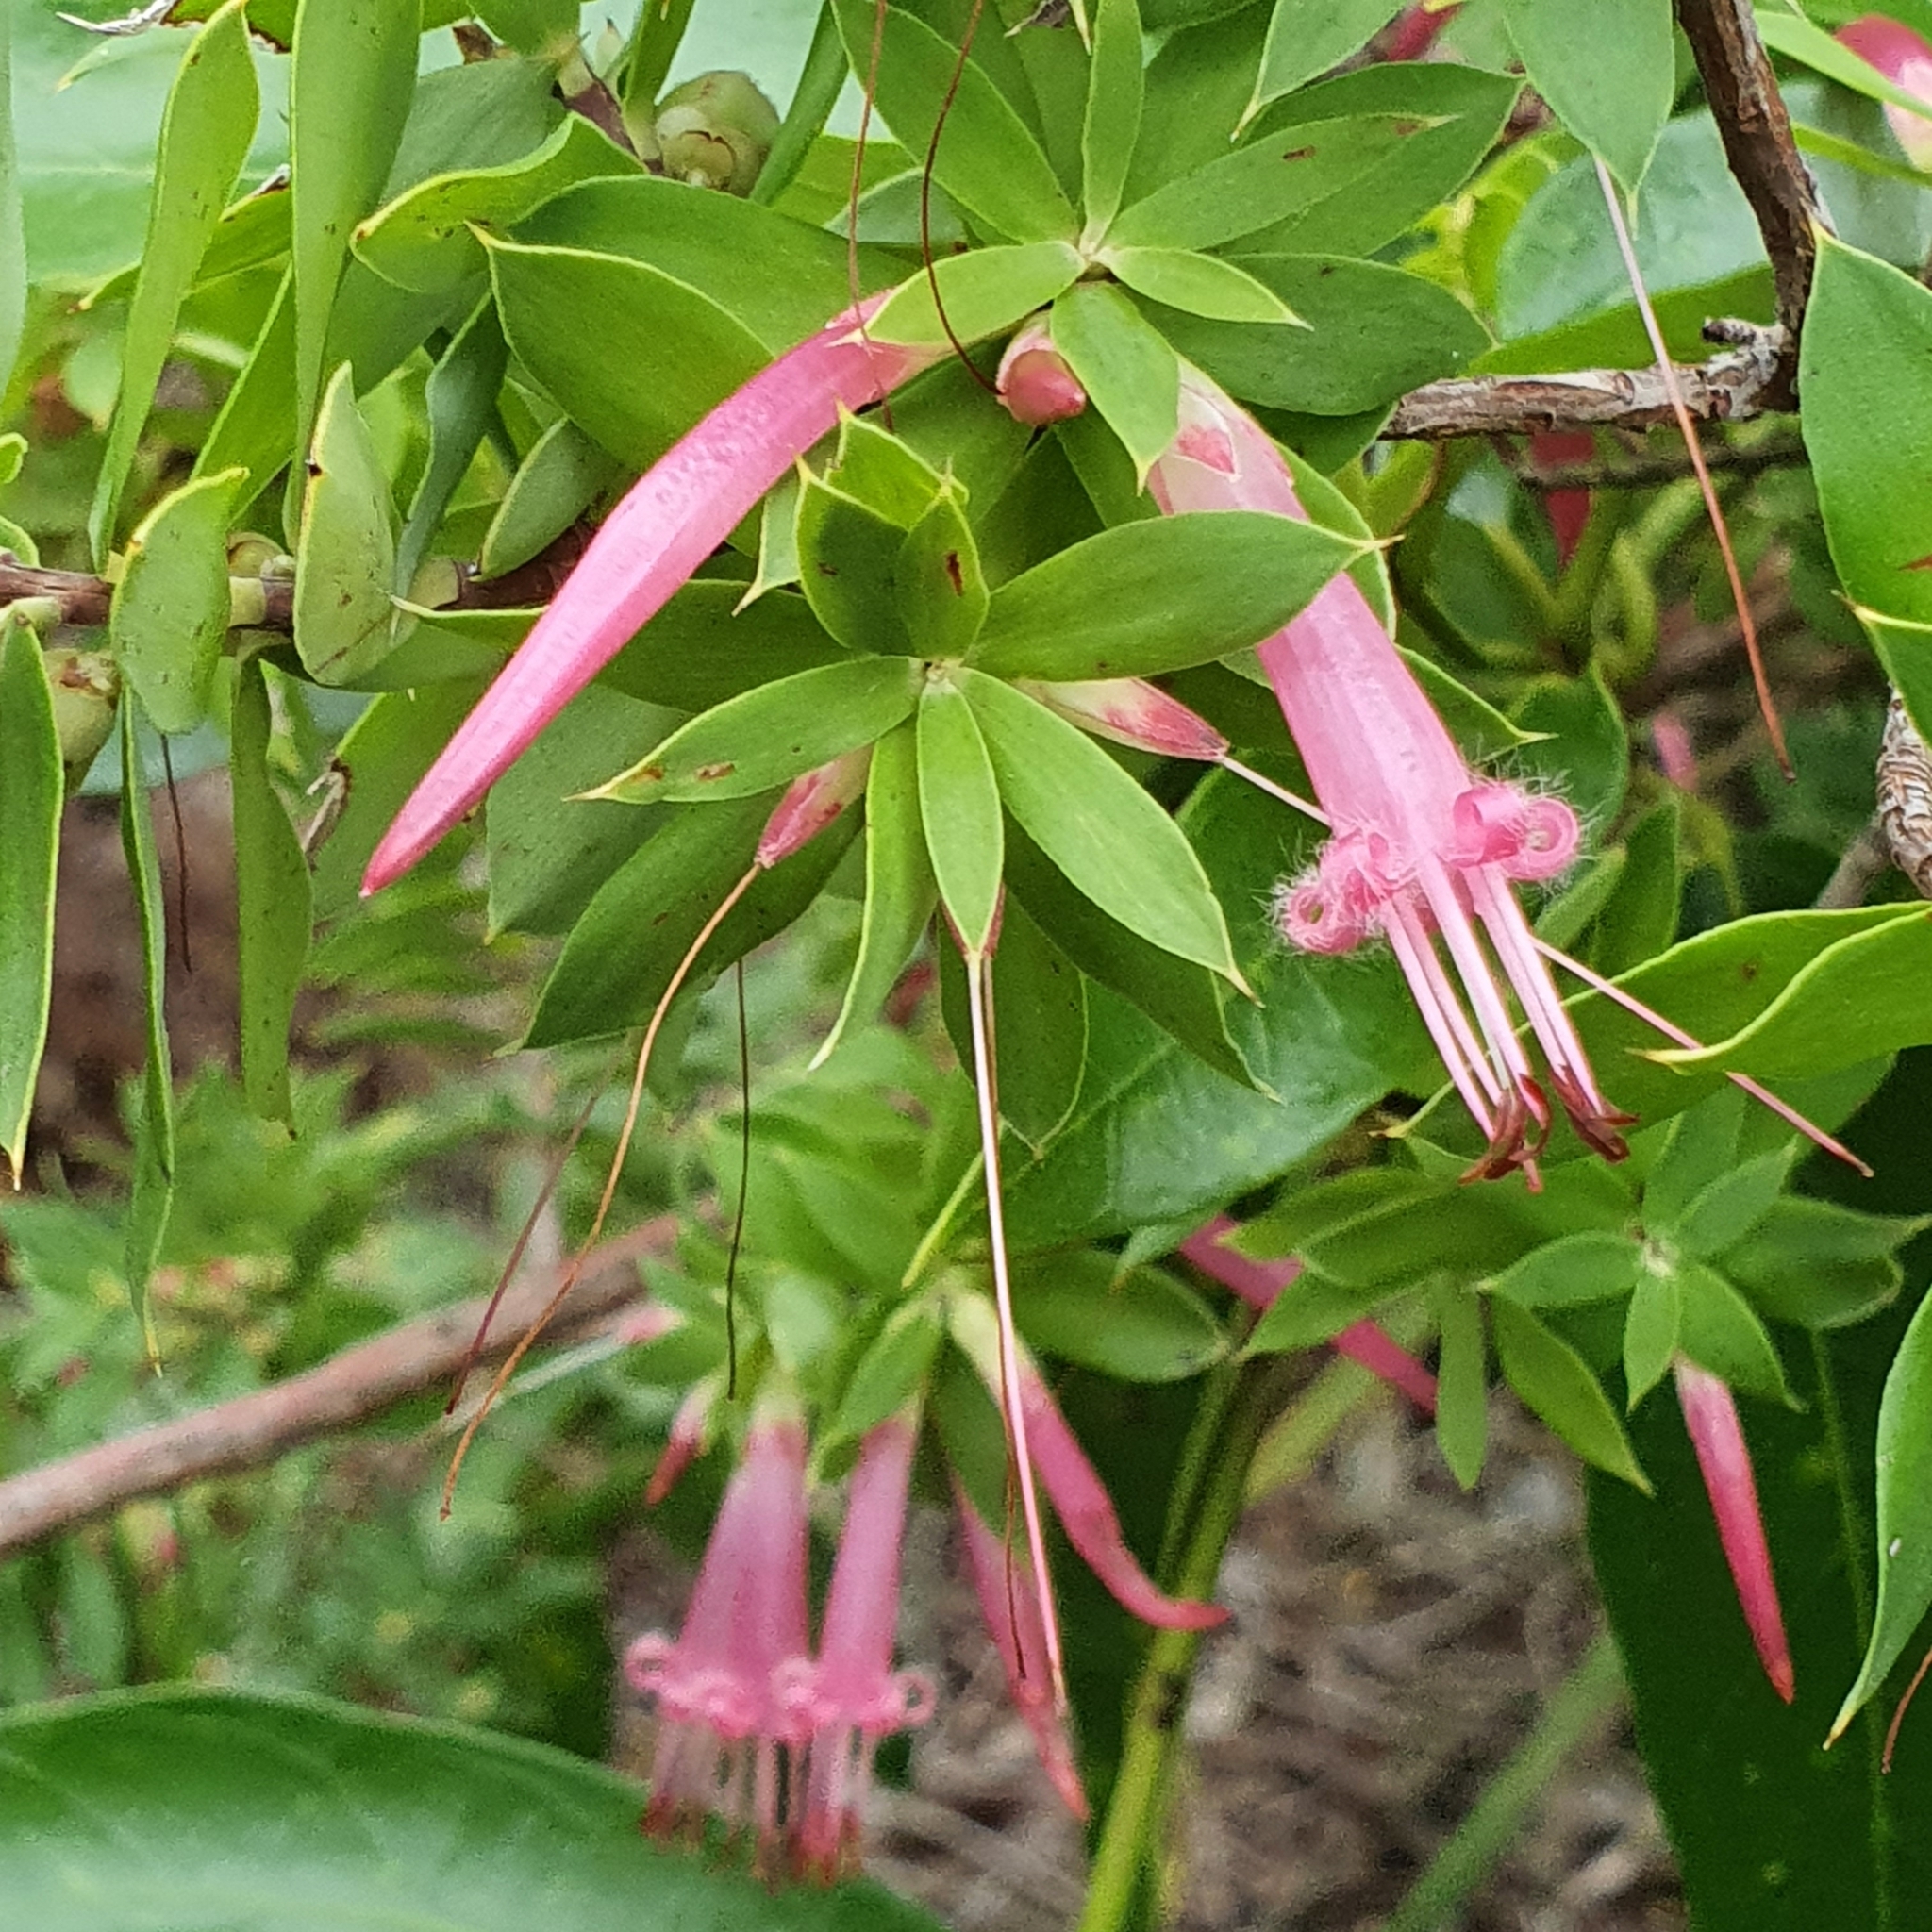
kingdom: Plantae
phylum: Tracheophyta
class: Magnoliopsida
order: Ericales
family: Ericaceae
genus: Styphelia
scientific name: Styphelia triflora
